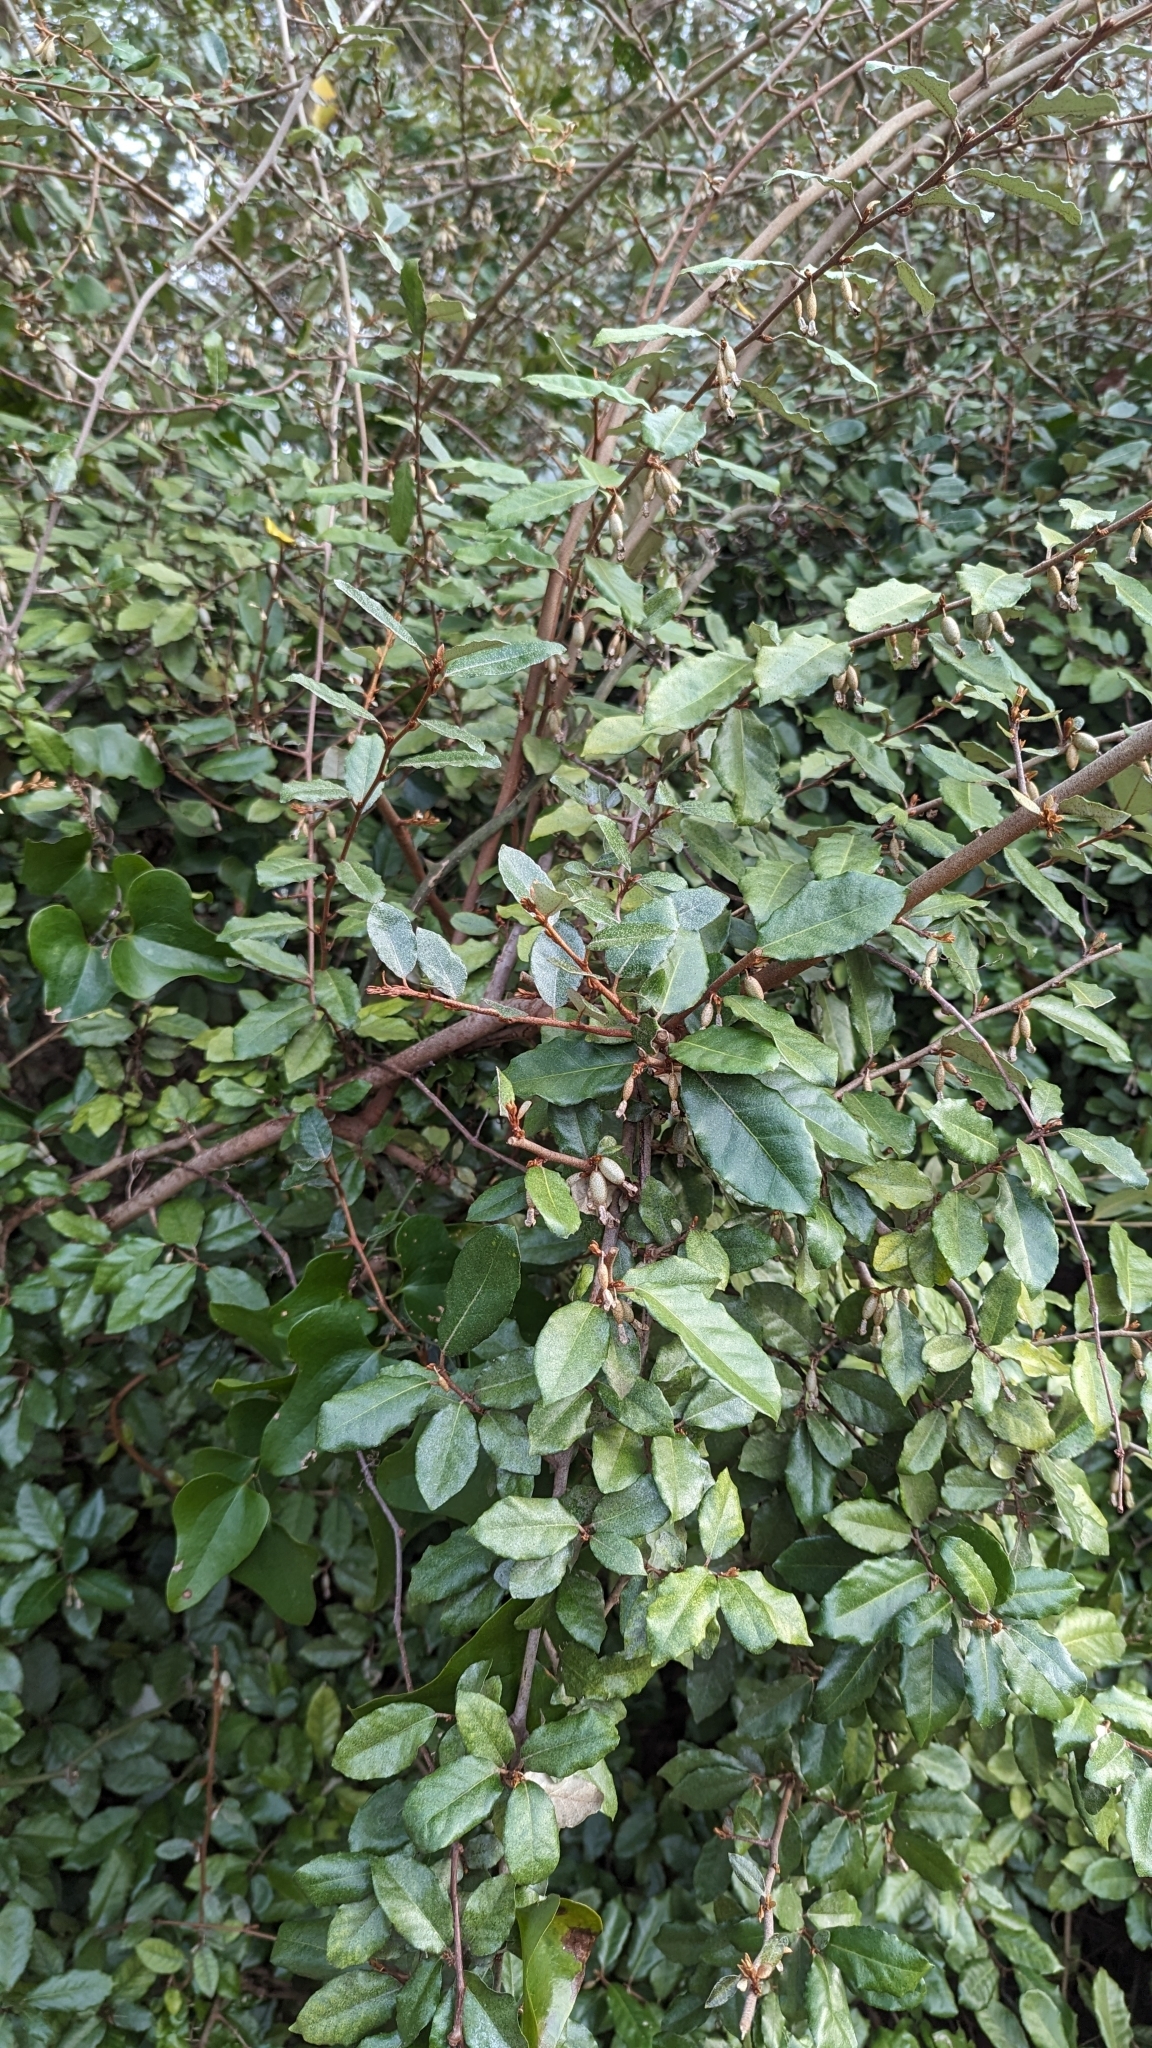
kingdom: Plantae
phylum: Tracheophyta
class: Magnoliopsida
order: Rosales
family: Elaeagnaceae
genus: Elaeagnus
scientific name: Elaeagnus pungens
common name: Spiny oleaster
